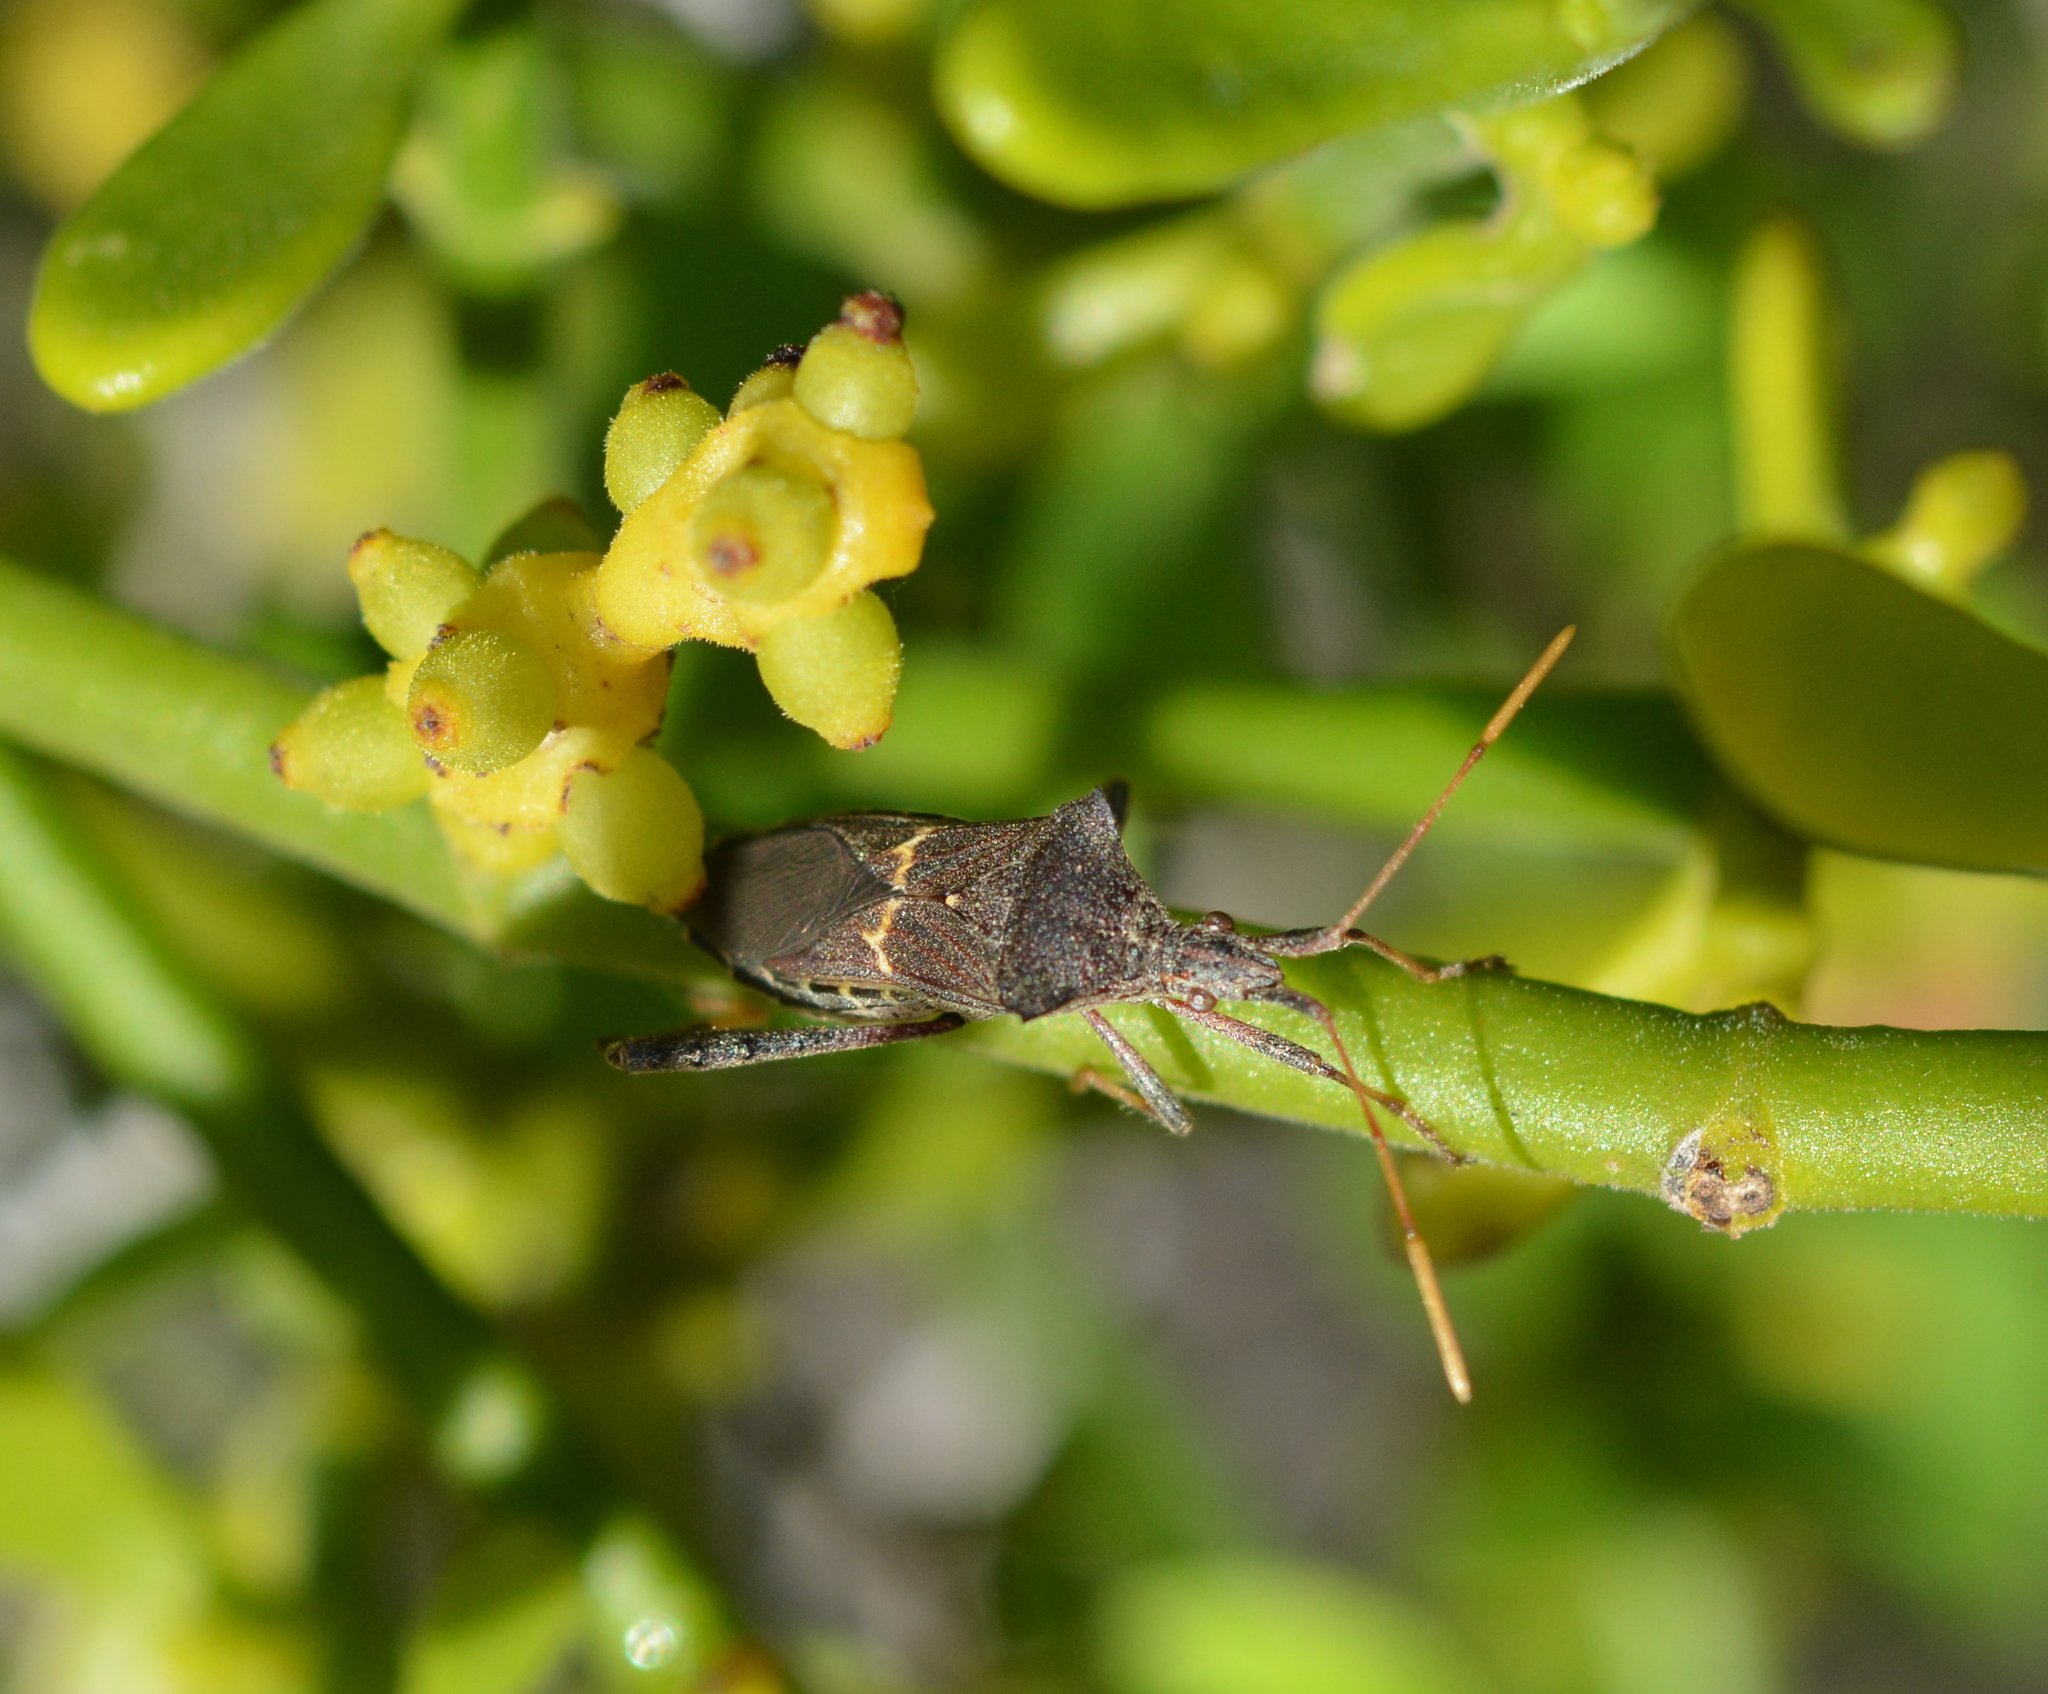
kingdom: Animalia
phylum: Arthropoda
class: Insecta
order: Hemiptera
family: Coreidae
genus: Leptoglossus
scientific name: Leptoglossus brevirostris
